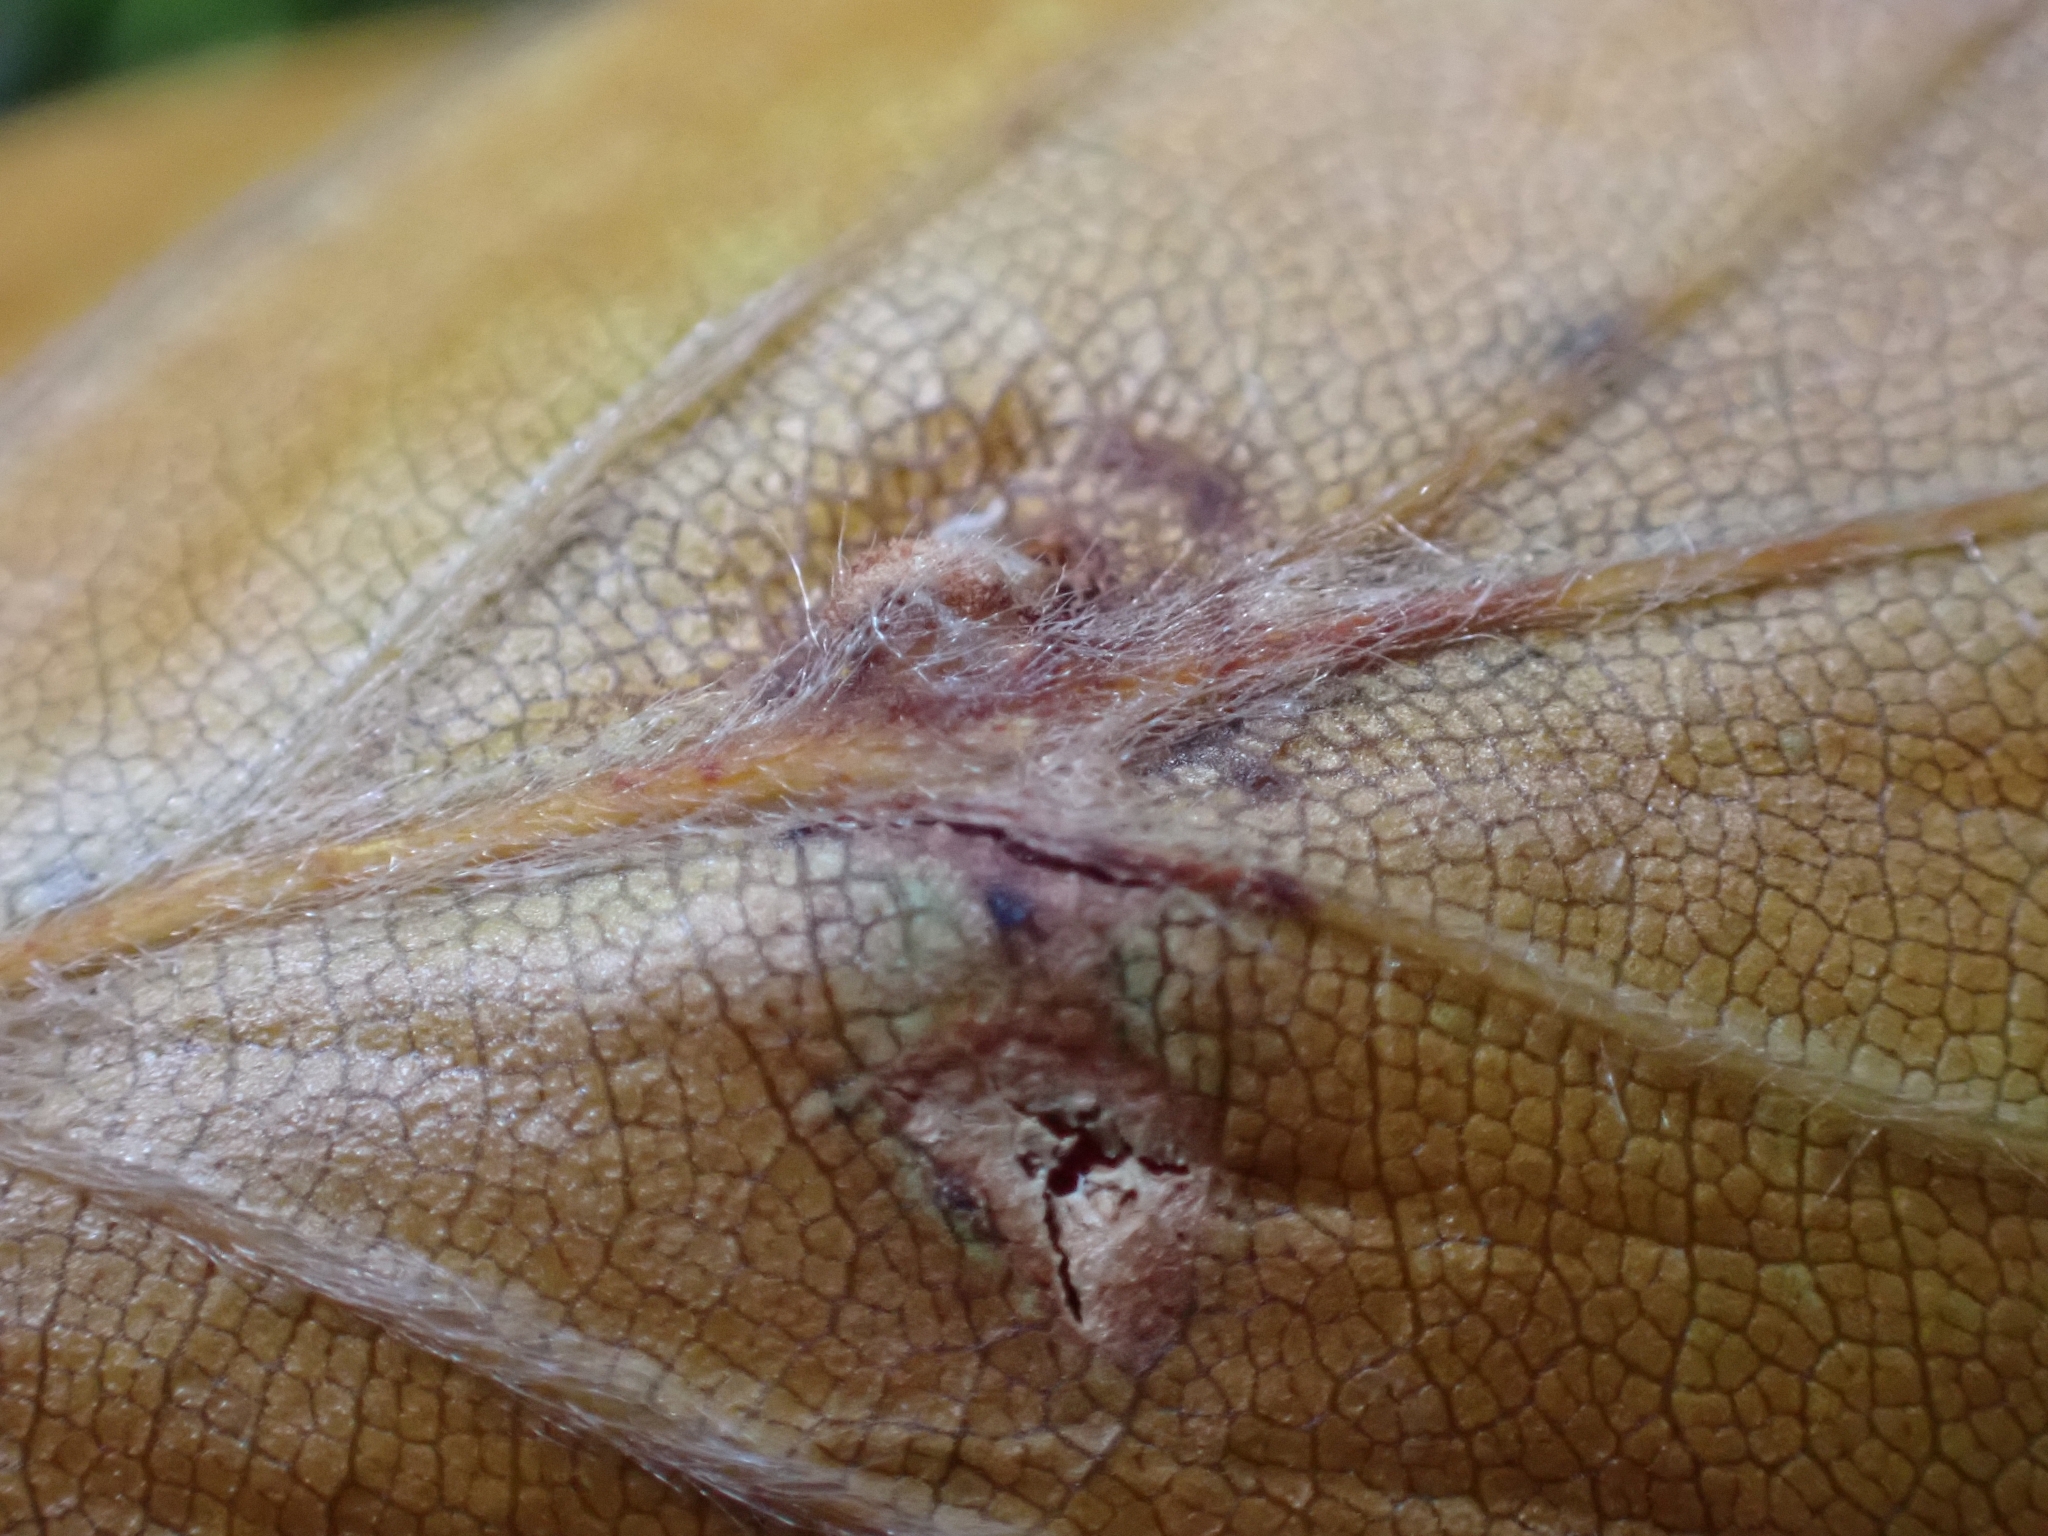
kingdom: Animalia
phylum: Arthropoda
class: Insecta
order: Diptera
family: Cecidomyiidae
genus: Mikiola
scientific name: Mikiola fagi
